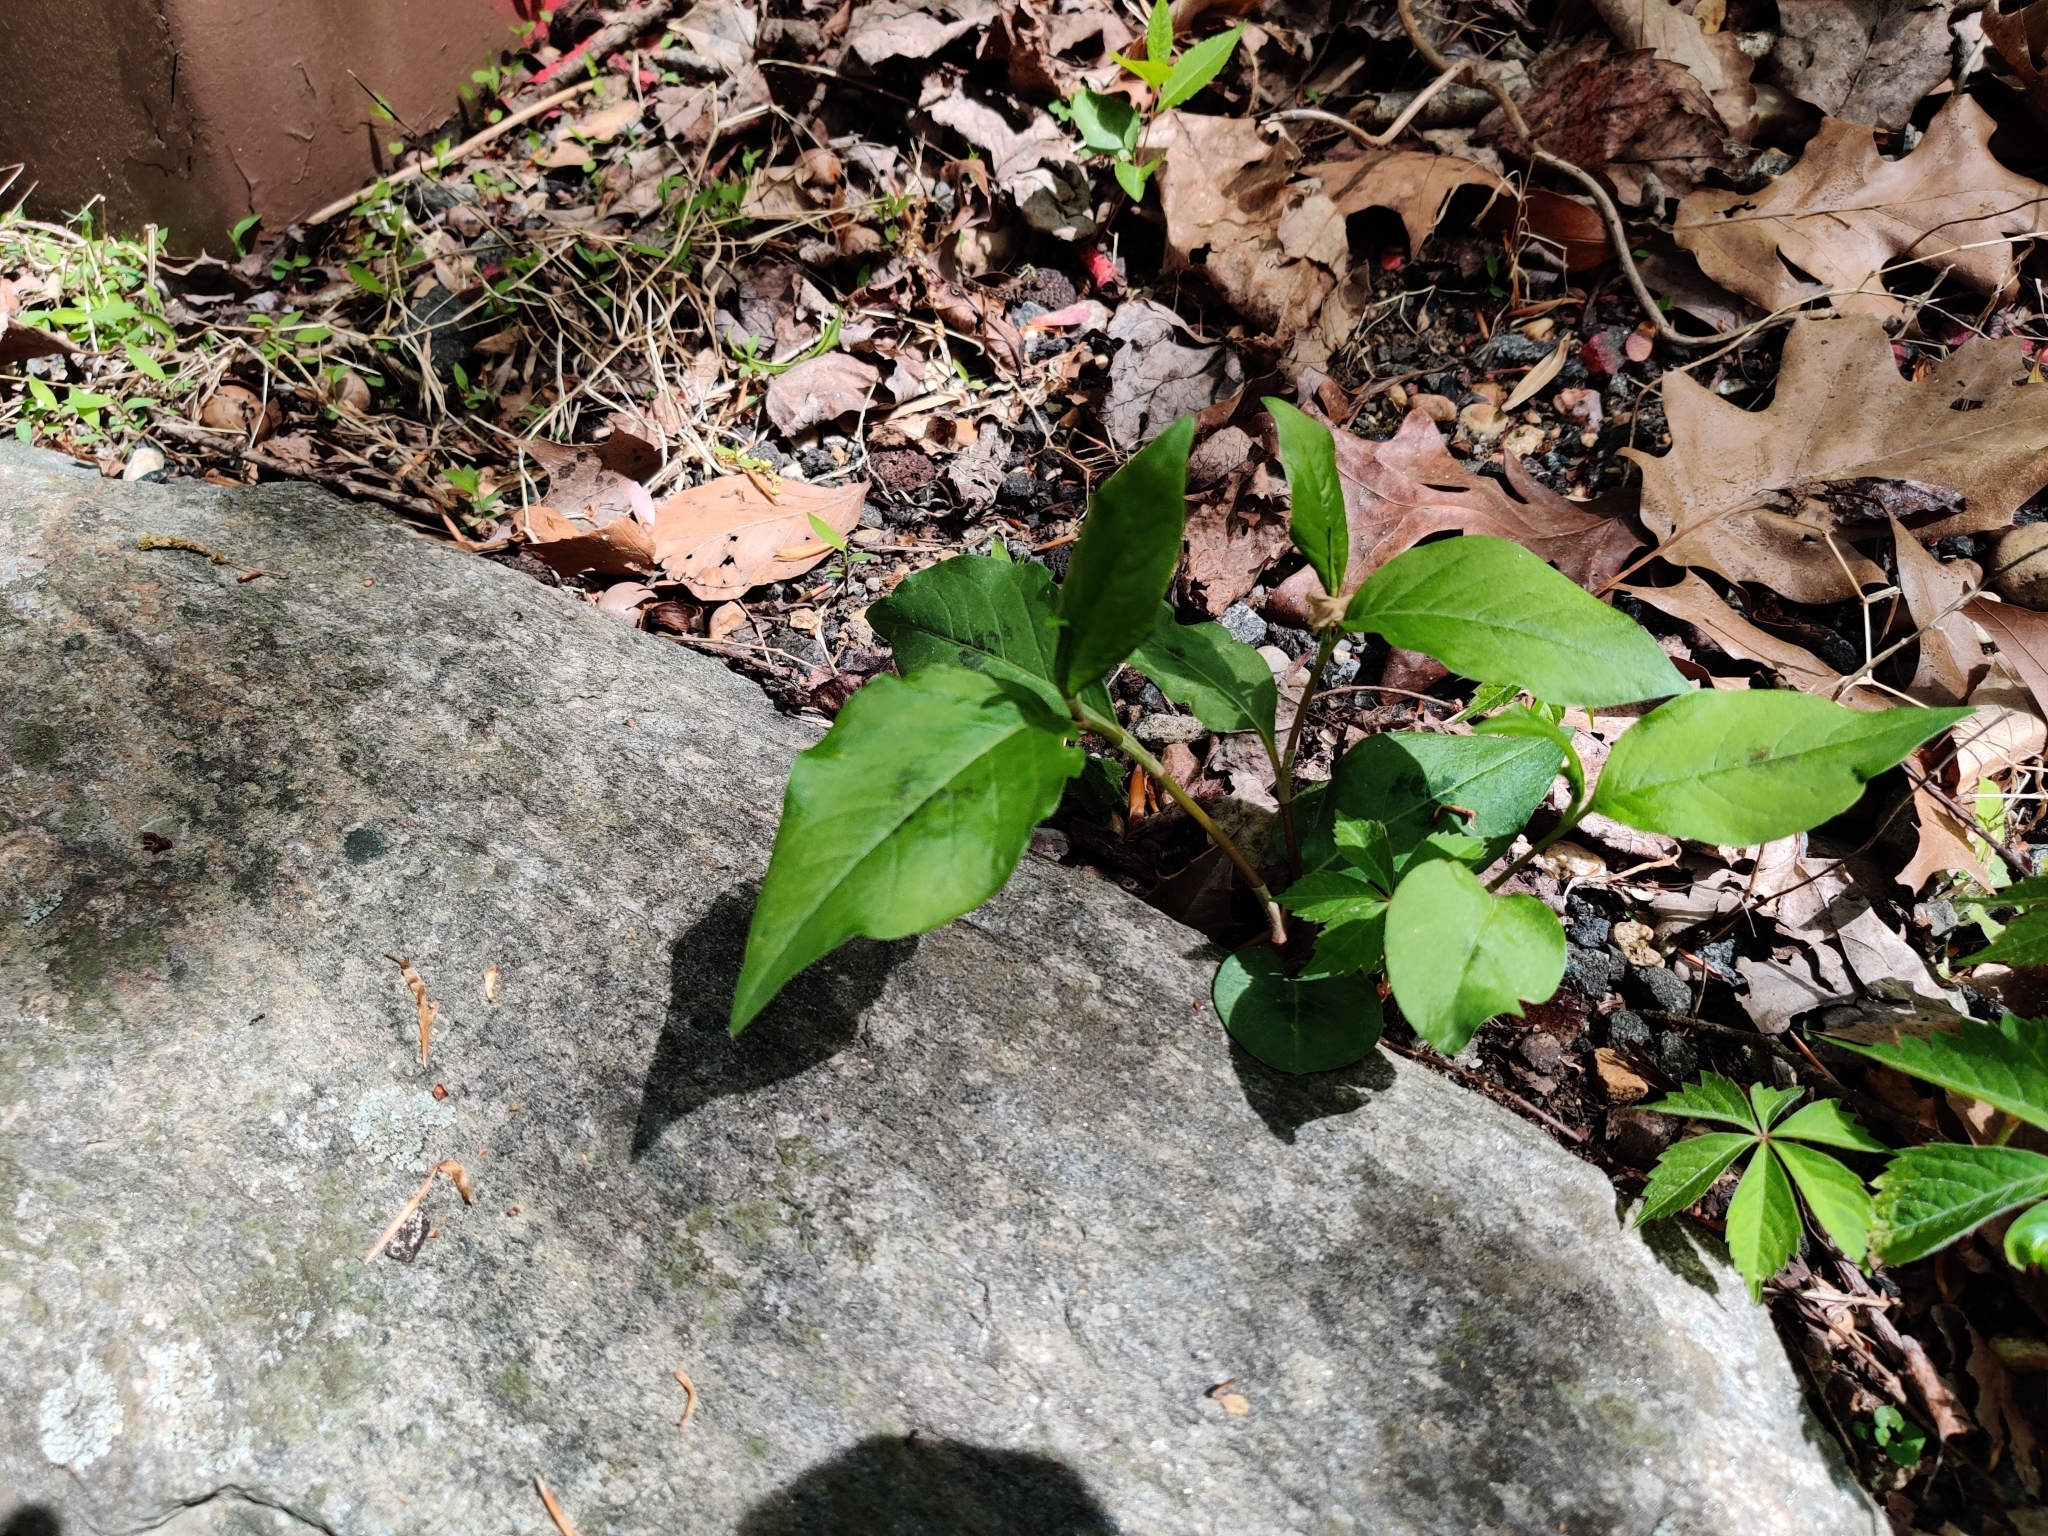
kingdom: Plantae
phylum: Tracheophyta
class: Magnoliopsida
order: Caryophyllales
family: Polygonaceae
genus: Persicaria
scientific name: Persicaria virginiana
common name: Jumpseed
